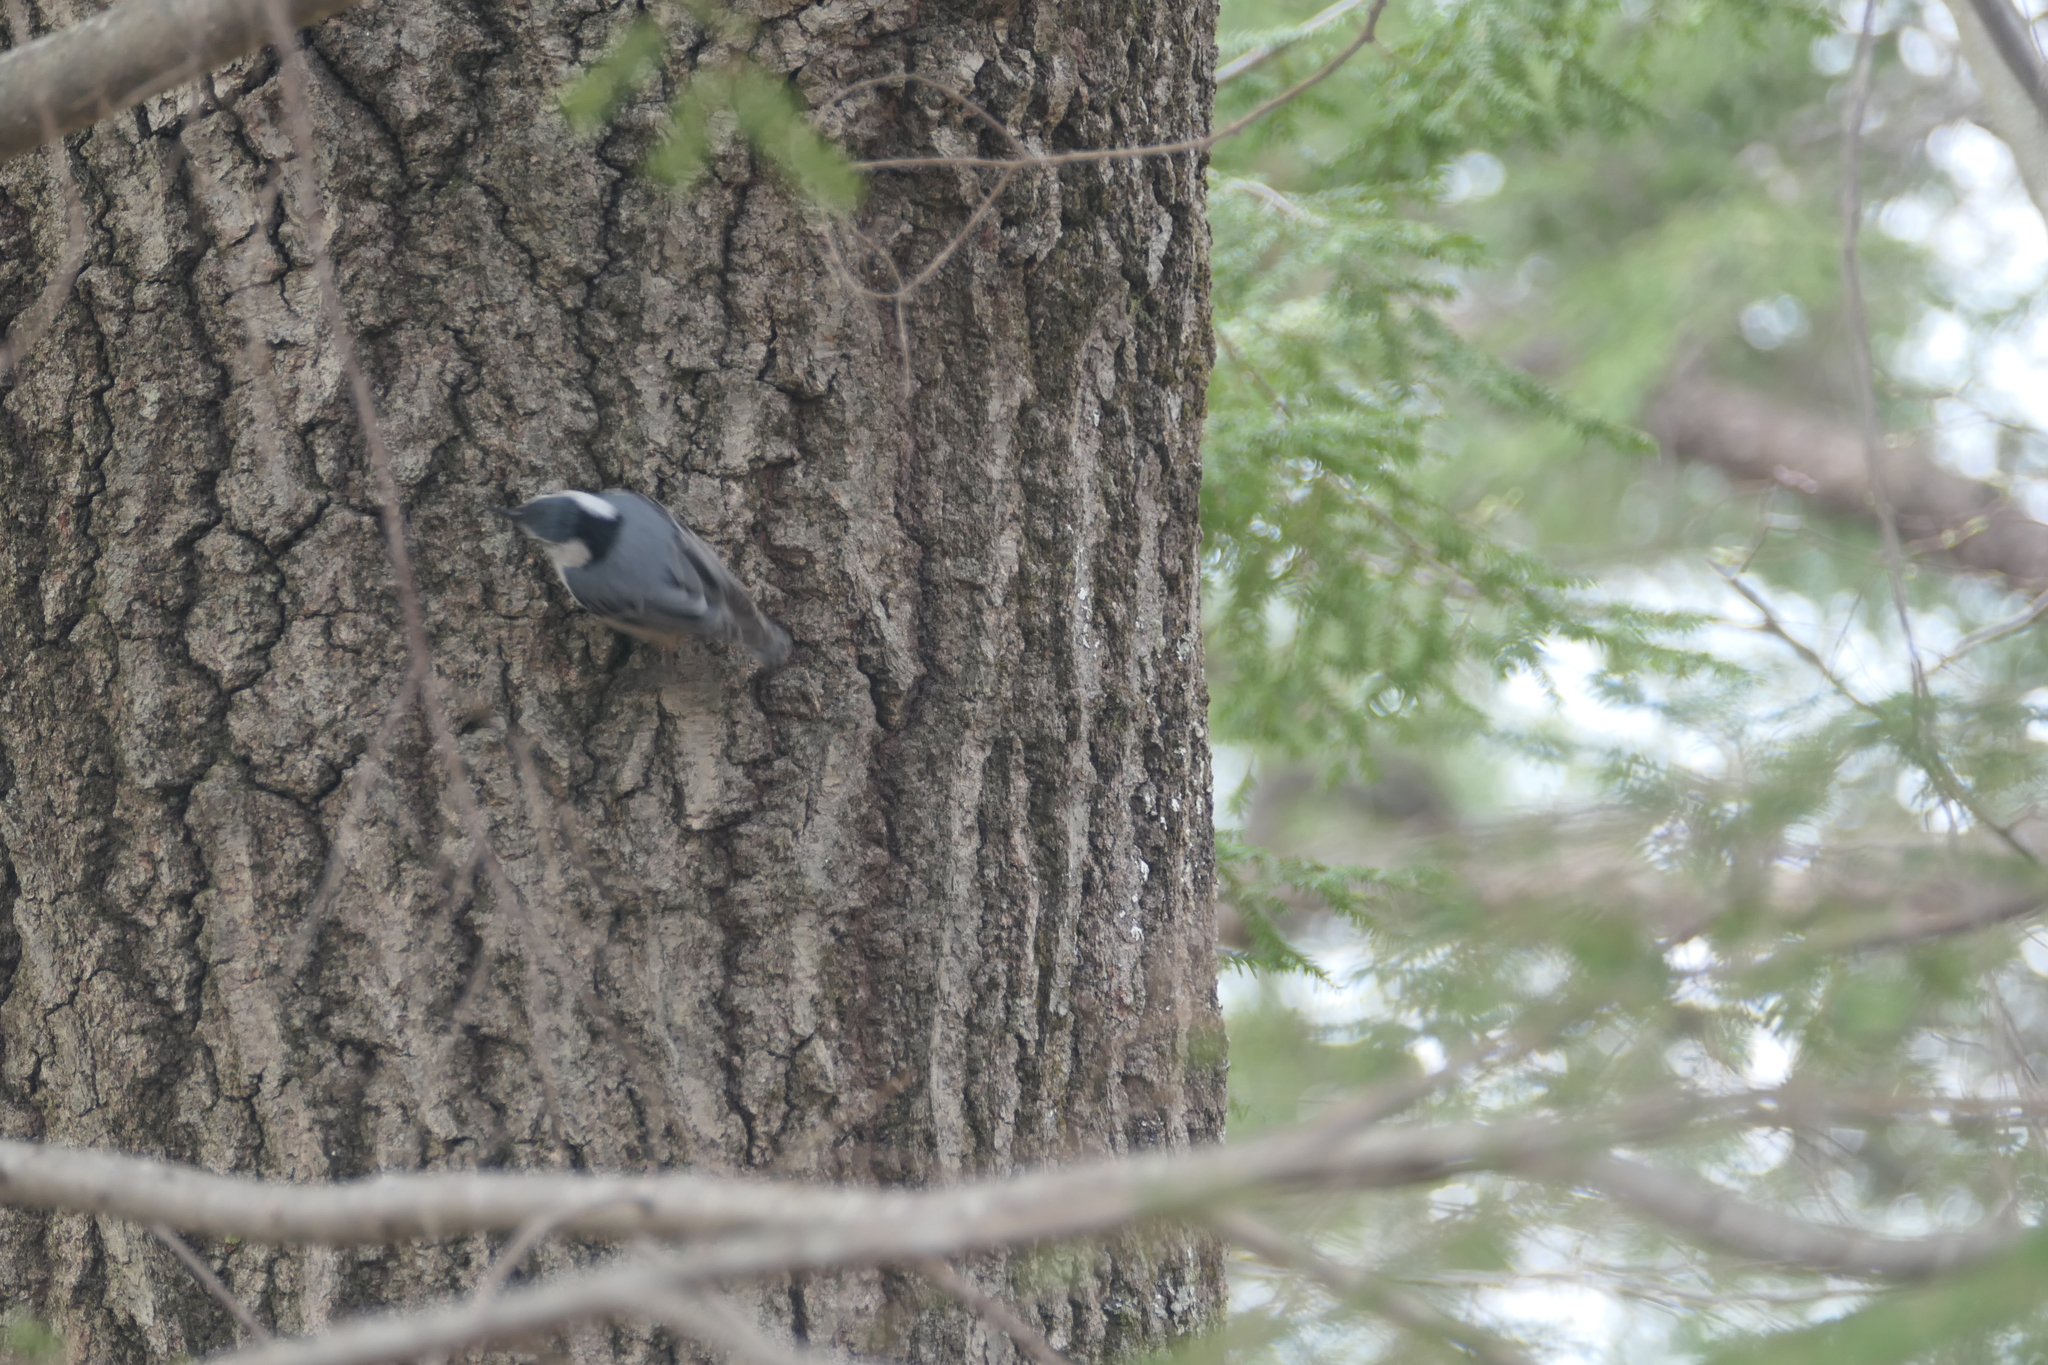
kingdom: Animalia
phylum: Chordata
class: Aves
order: Passeriformes
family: Sittidae
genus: Sitta
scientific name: Sitta carolinensis
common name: White-breasted nuthatch
